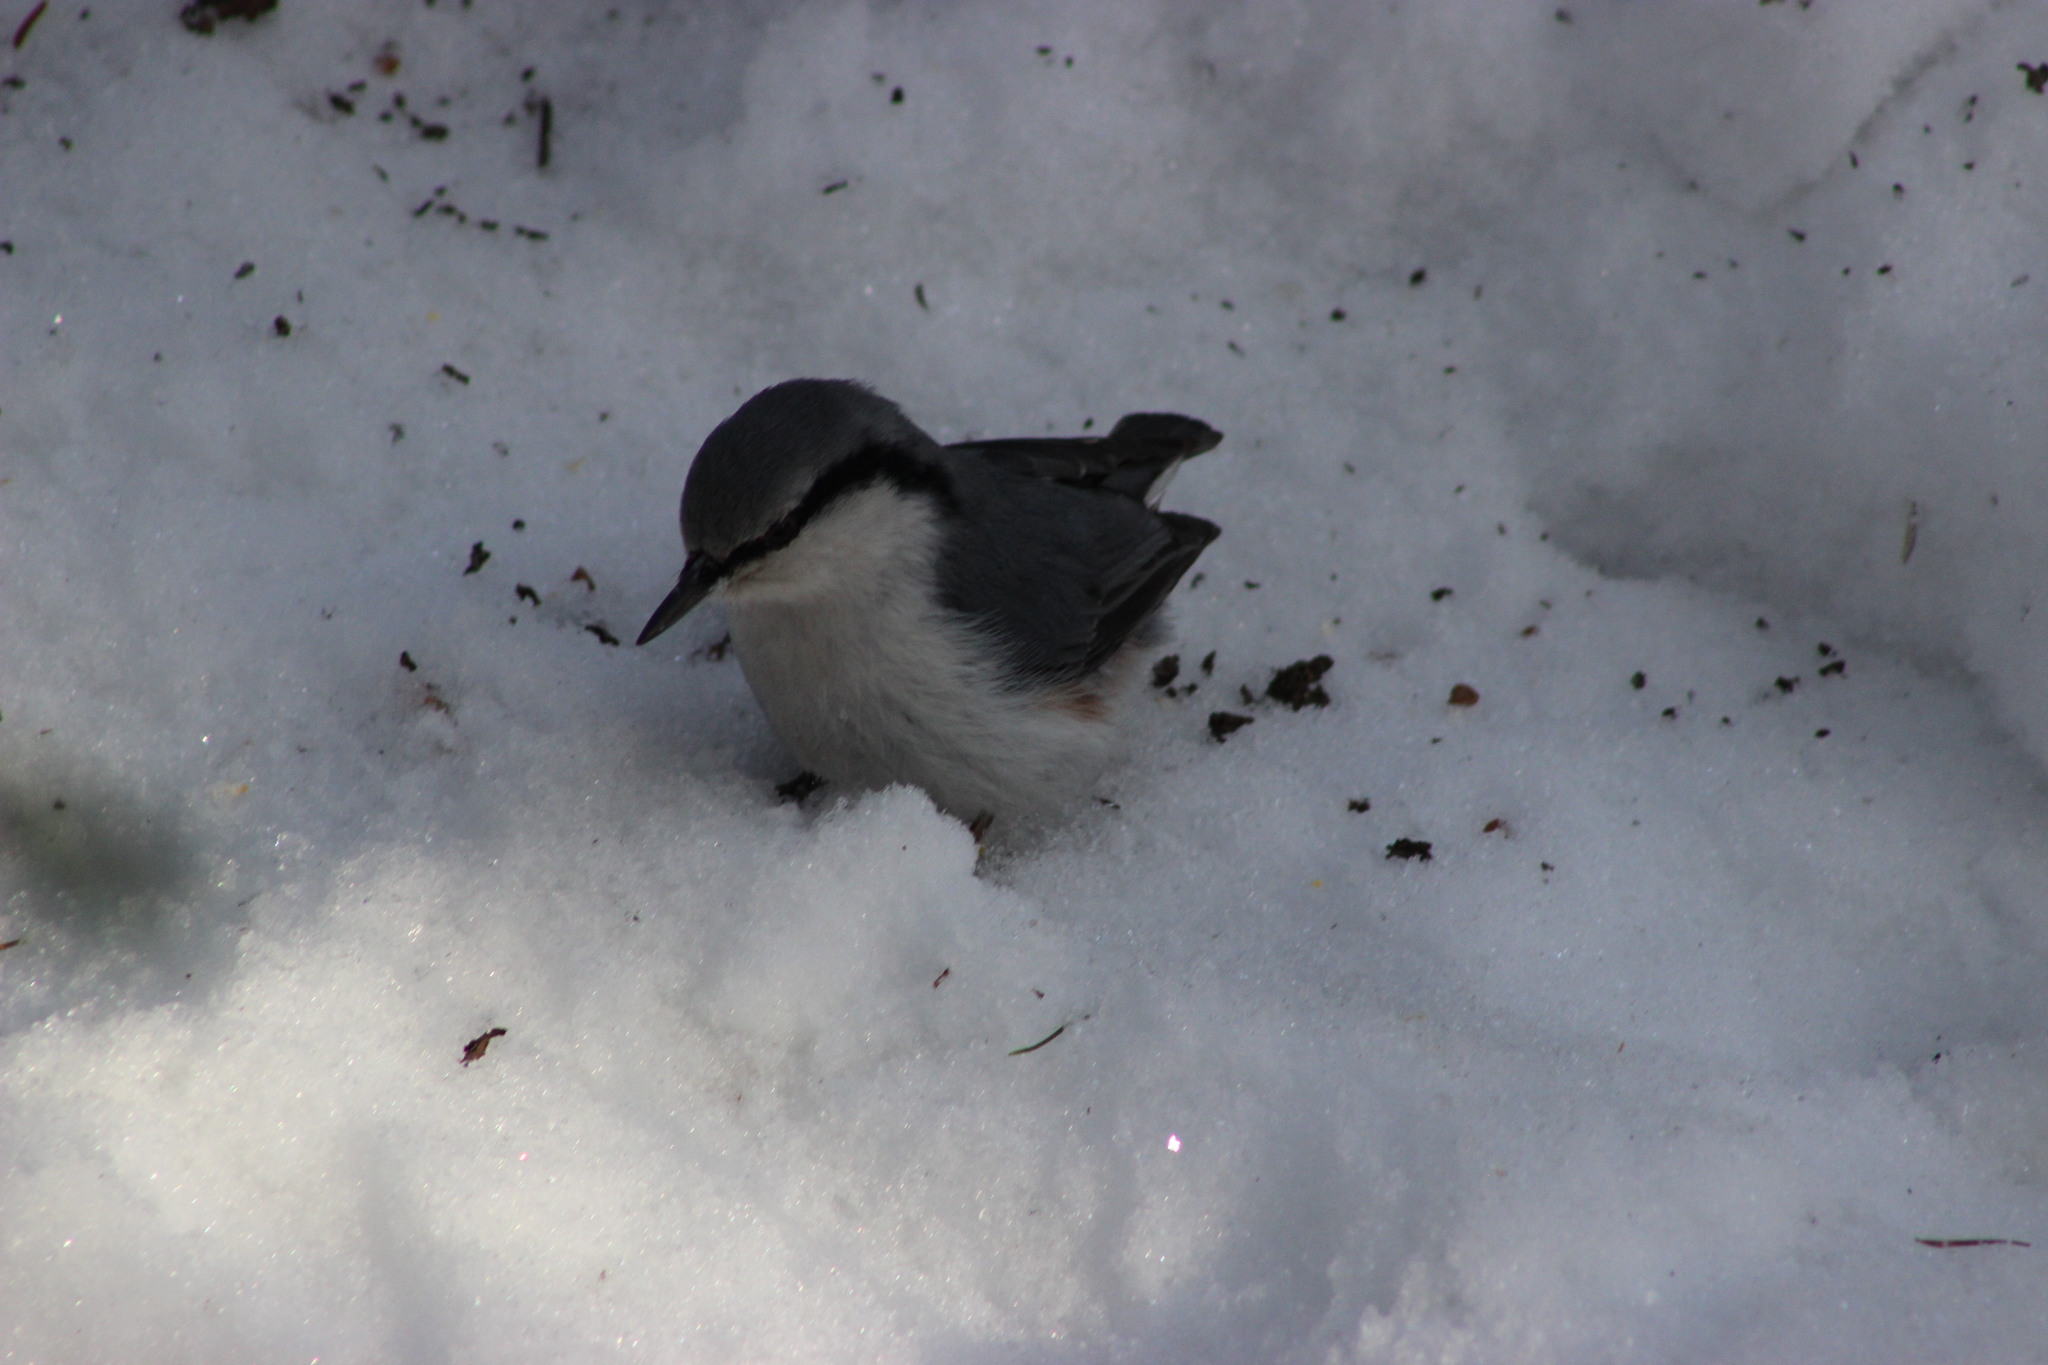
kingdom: Animalia
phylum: Chordata
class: Aves
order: Passeriformes
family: Sittidae
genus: Sitta
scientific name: Sitta europaea
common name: Eurasian nuthatch
